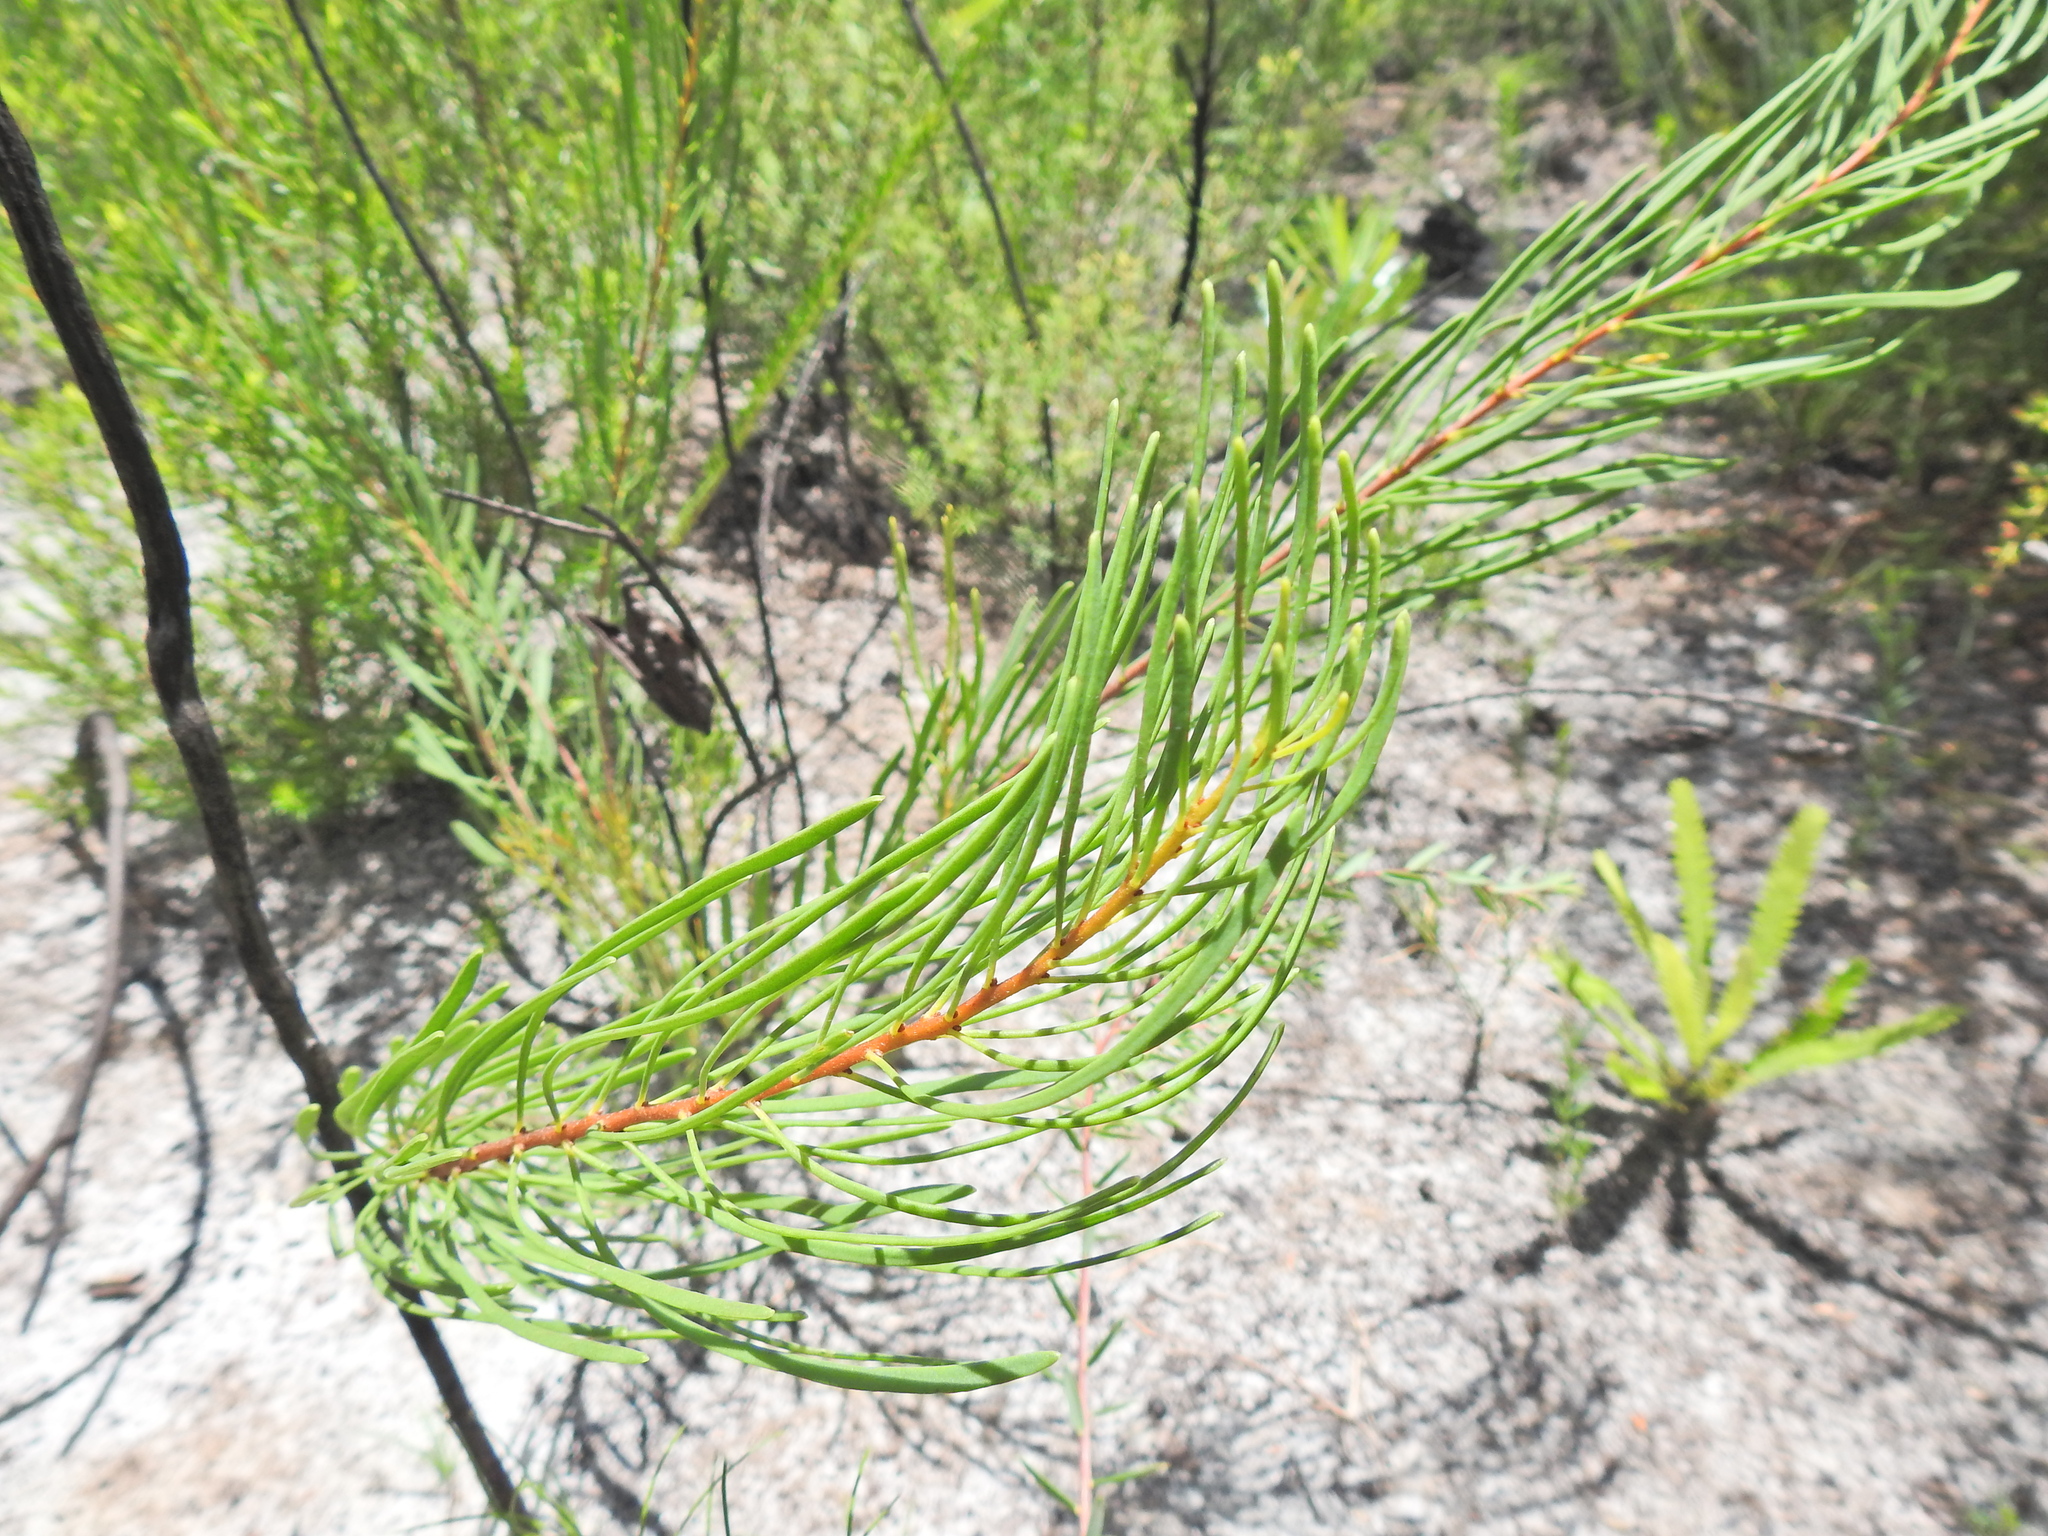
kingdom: Plantae
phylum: Tracheophyta
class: Magnoliopsida
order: Proteales
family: Proteaceae
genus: Strangea
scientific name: Strangea linearis
